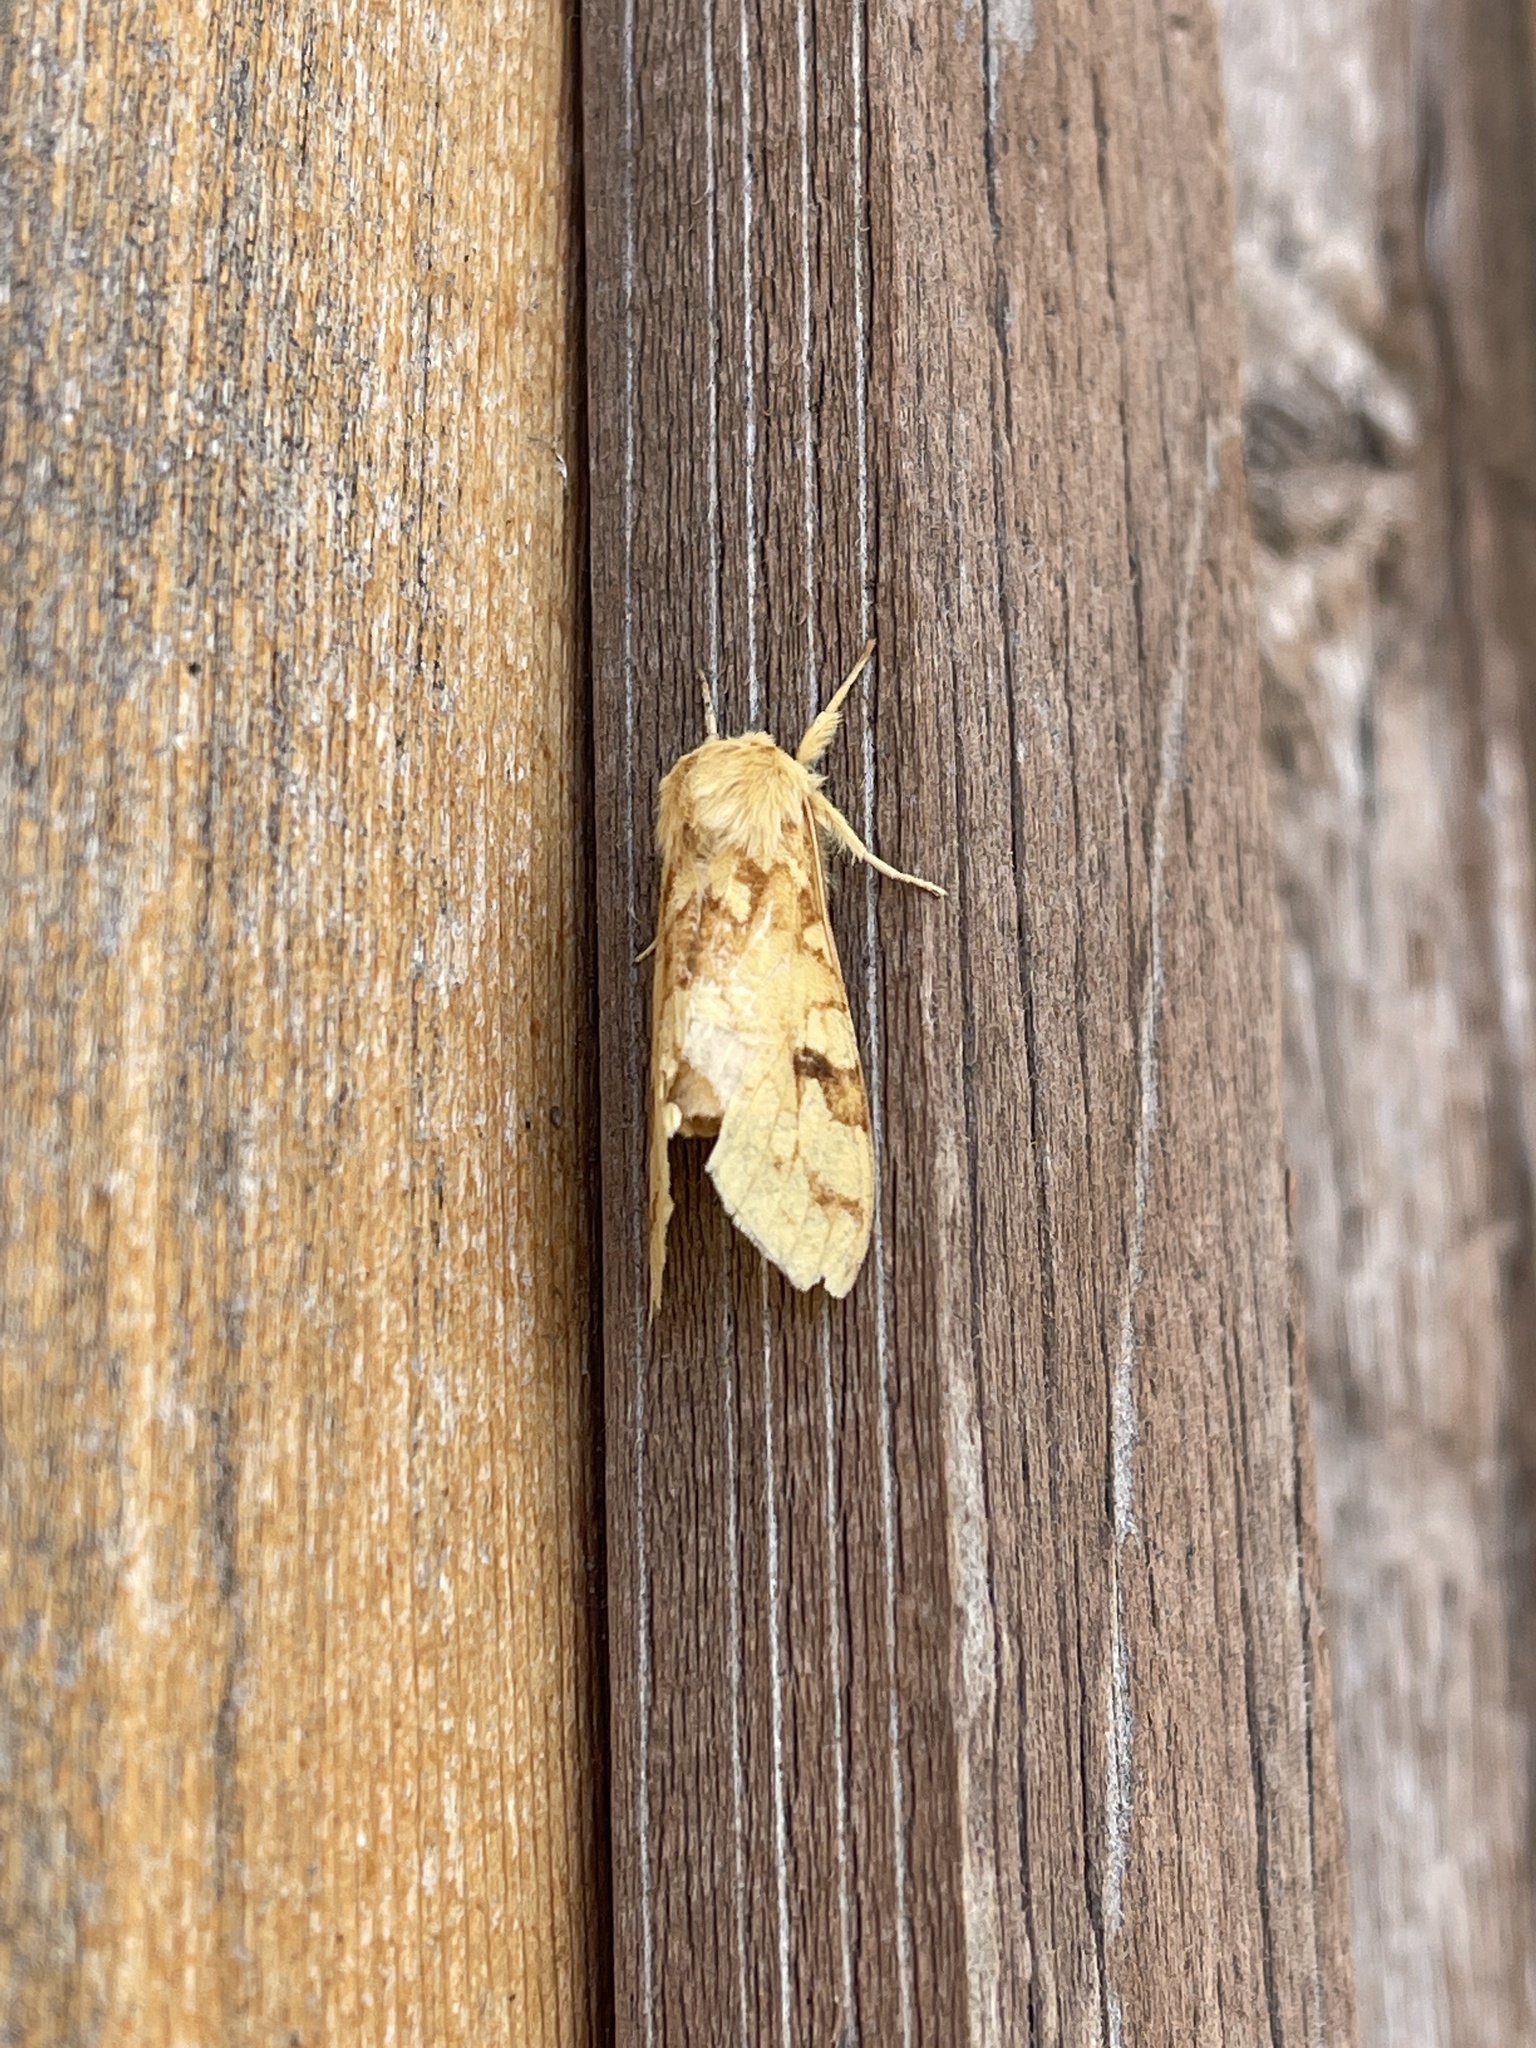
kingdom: Animalia
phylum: Arthropoda
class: Insecta
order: Lepidoptera
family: Erebidae
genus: Lophocampa
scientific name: Lophocampa maculata
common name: Spotted tussock moth
